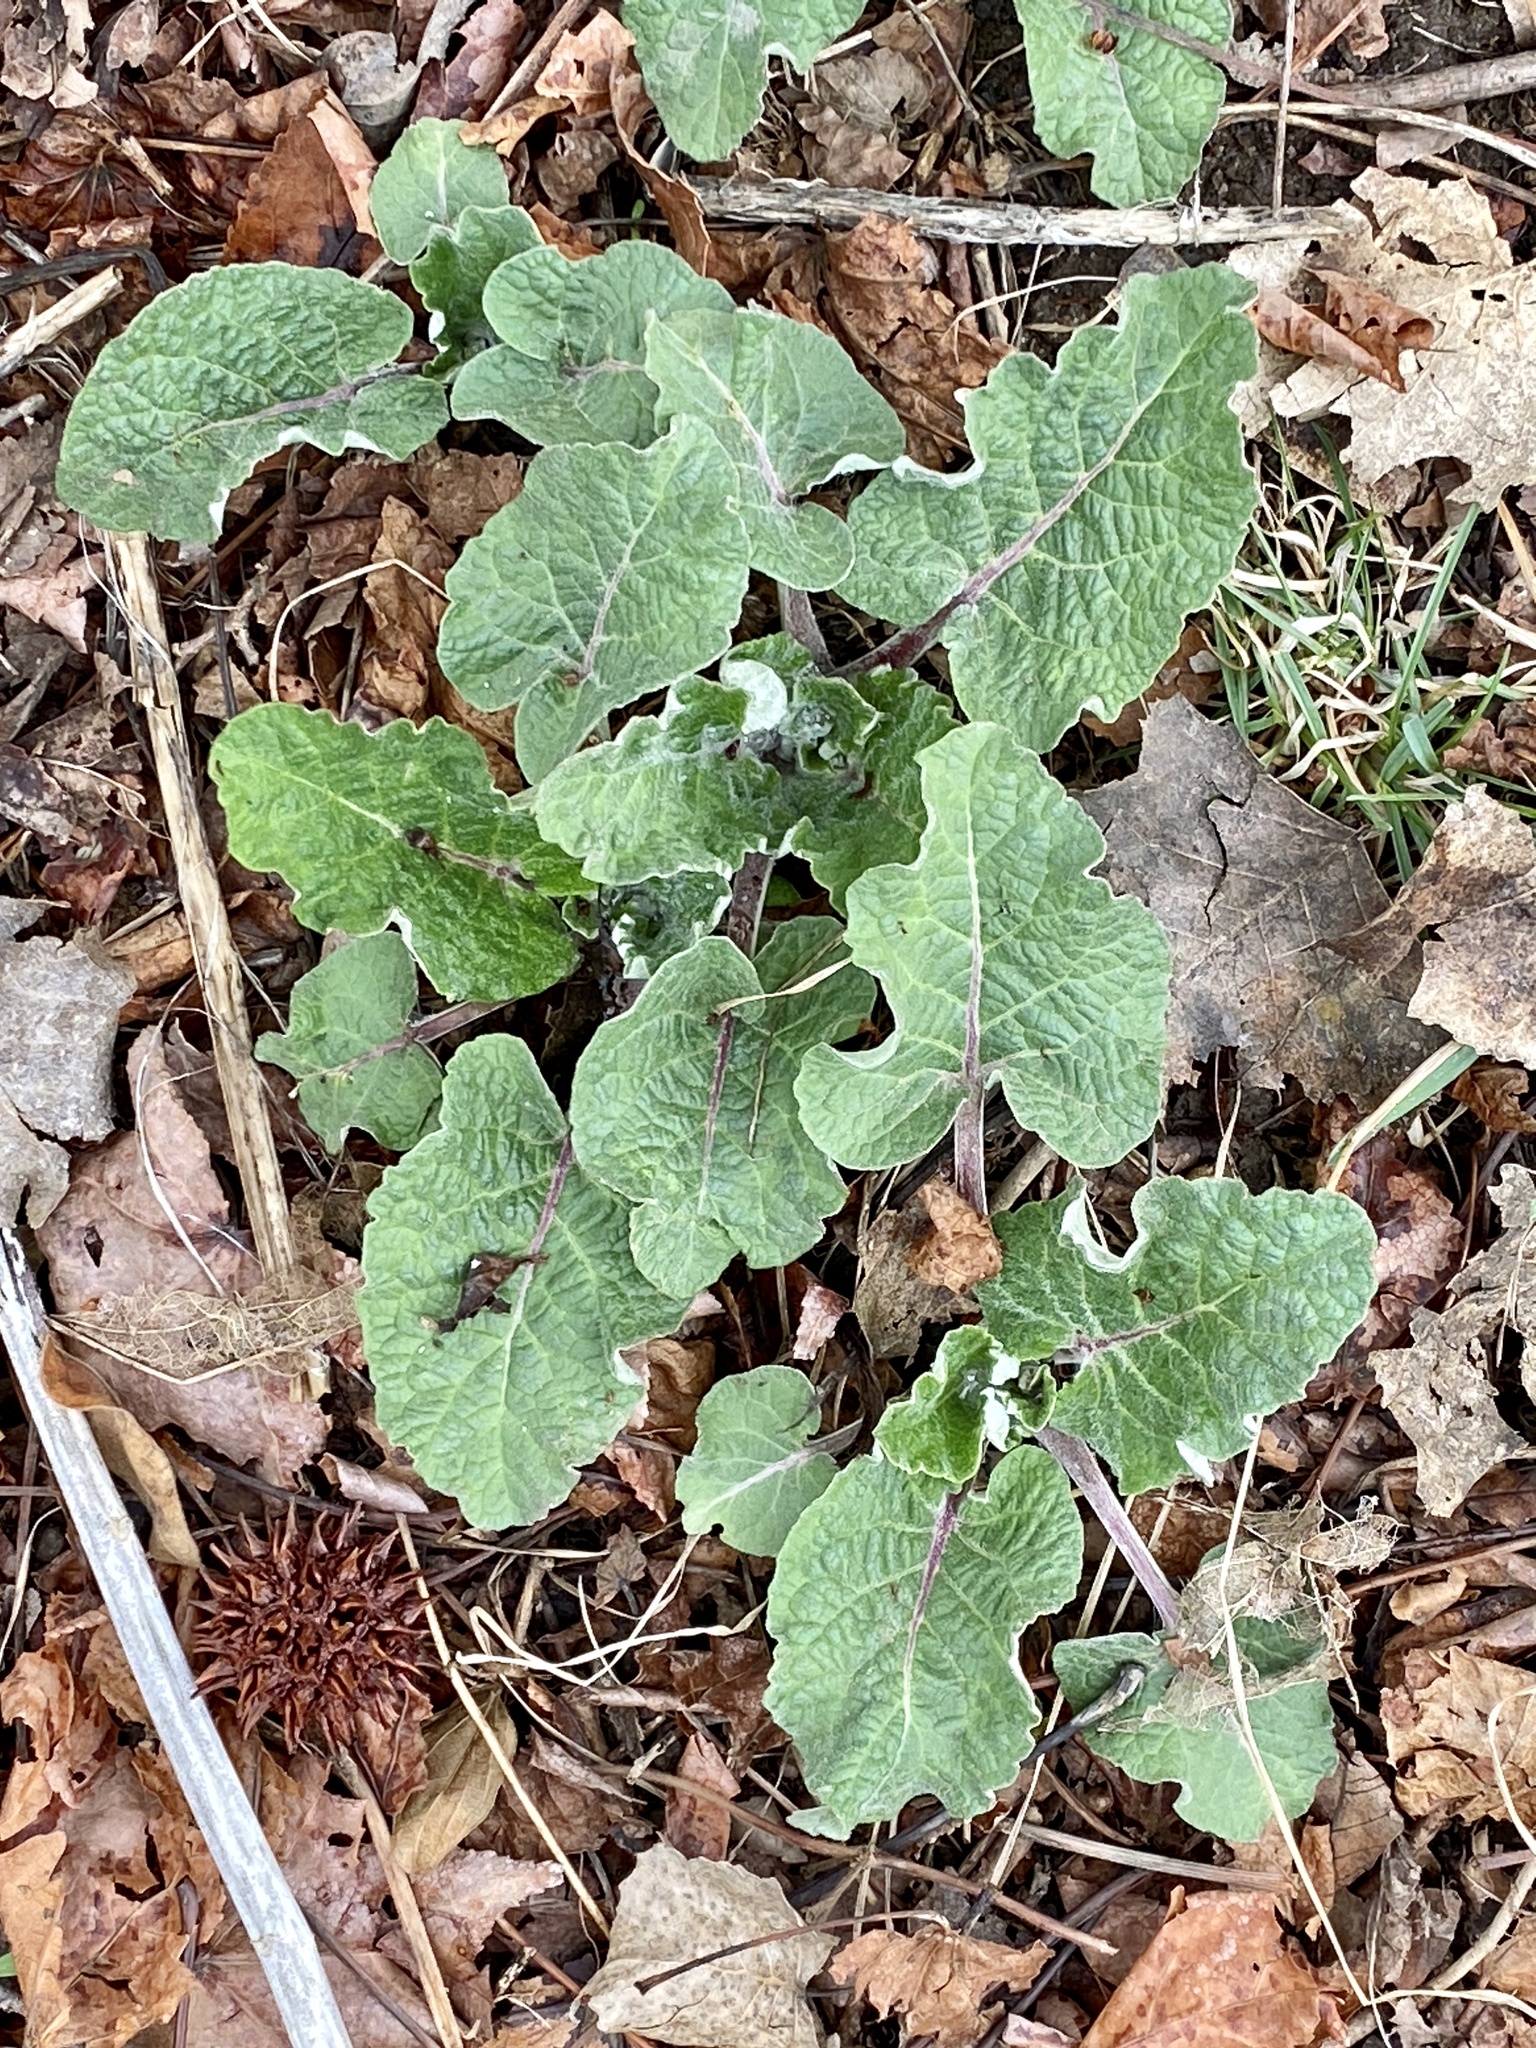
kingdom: Plantae
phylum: Tracheophyta
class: Magnoliopsida
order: Asterales
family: Asteraceae
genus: Arctium
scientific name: Arctium
